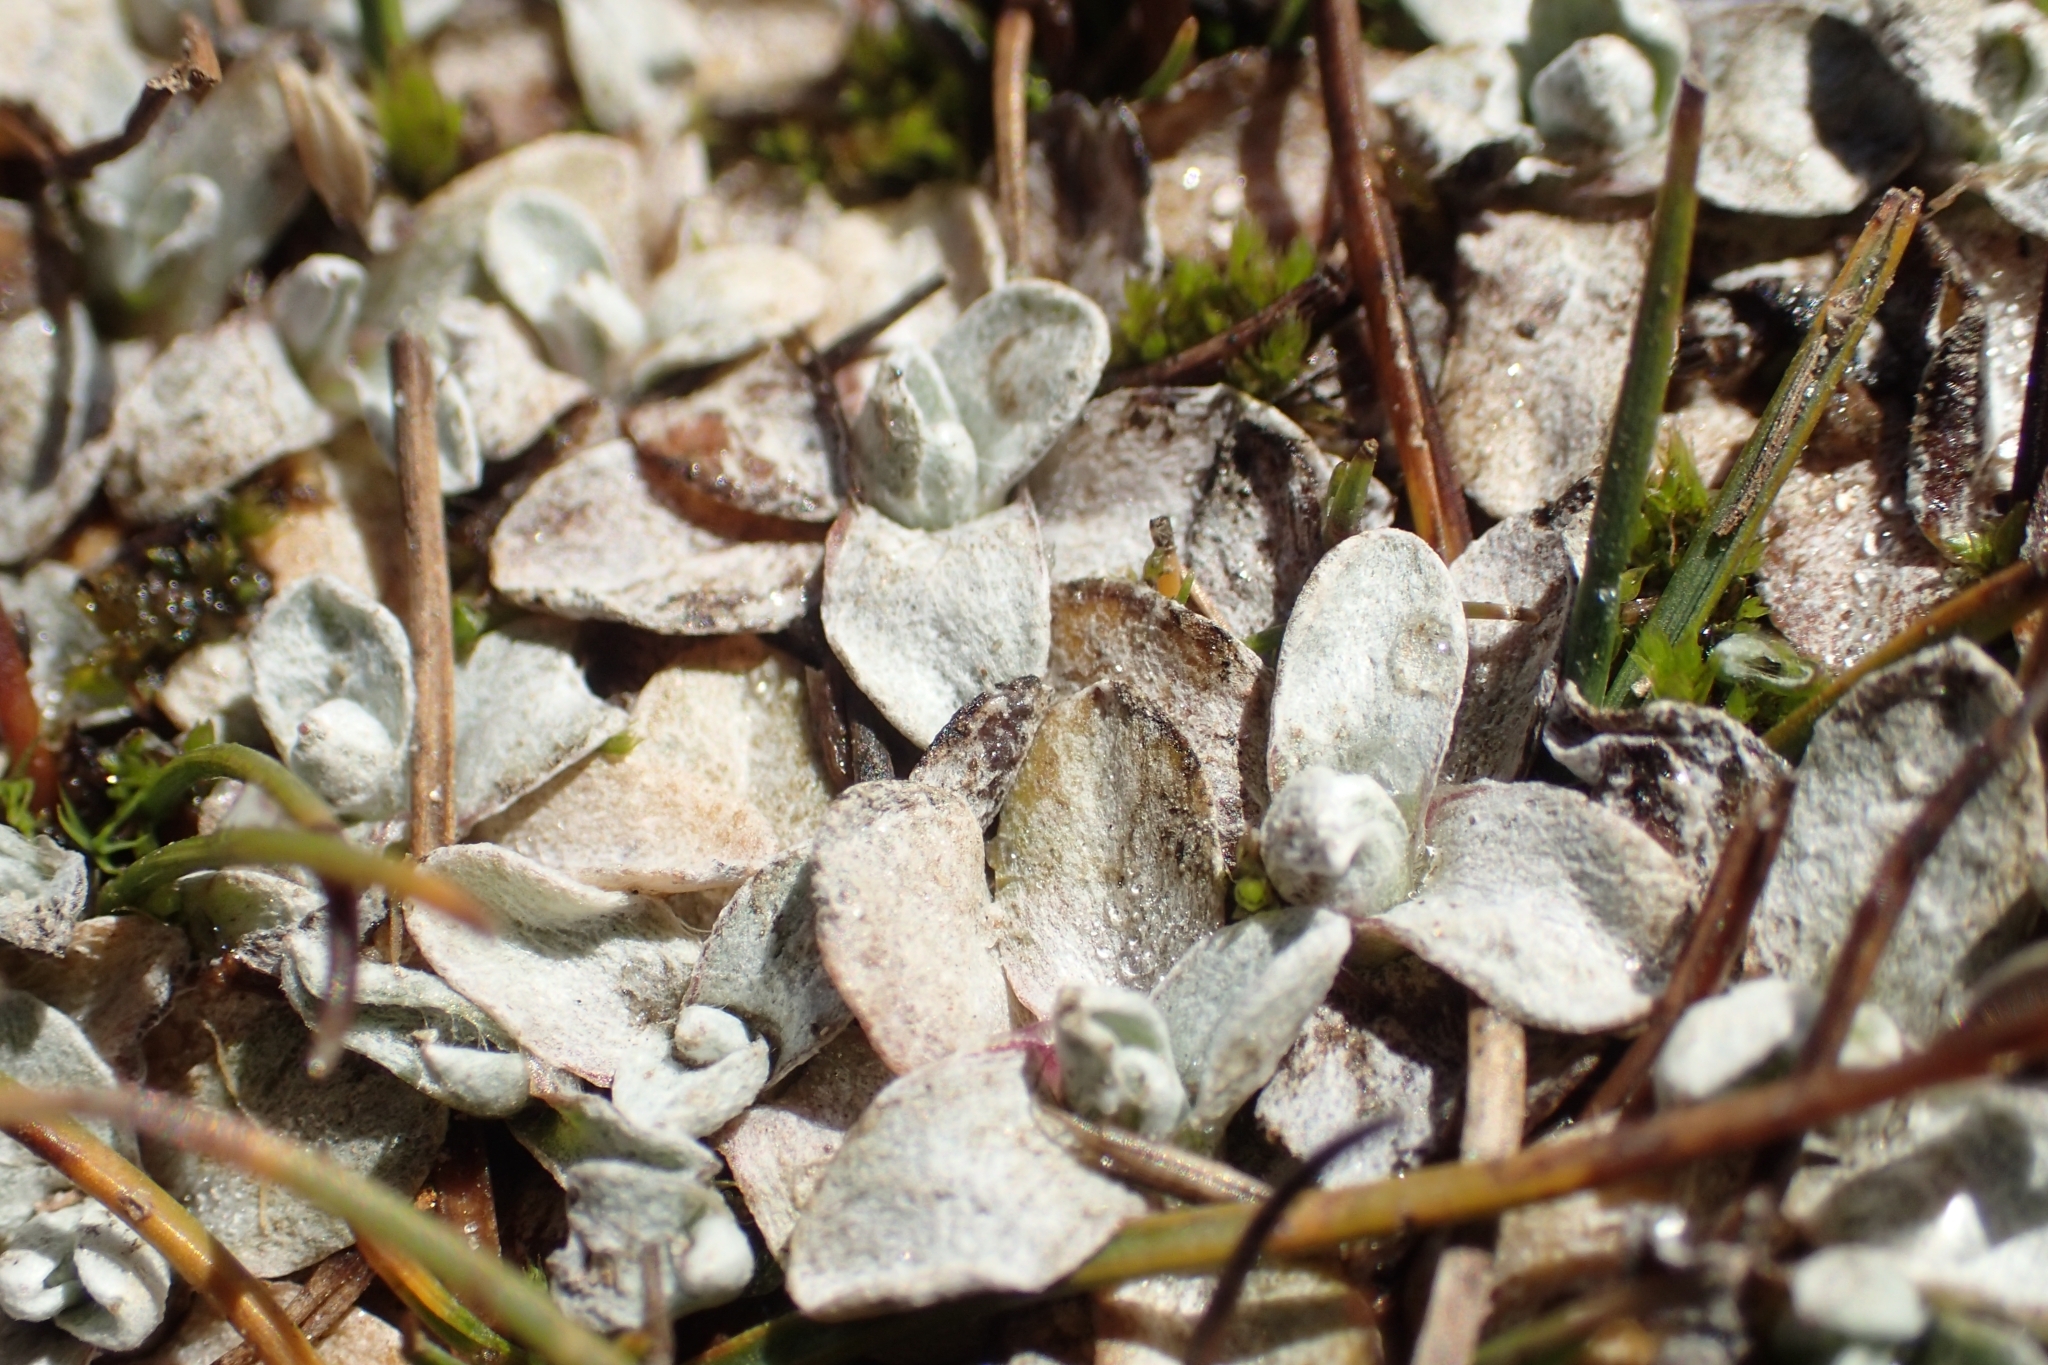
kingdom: Plantae
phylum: Tracheophyta
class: Magnoliopsida
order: Asterales
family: Asteraceae
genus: Argyrotegium
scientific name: Argyrotegium mackayi
